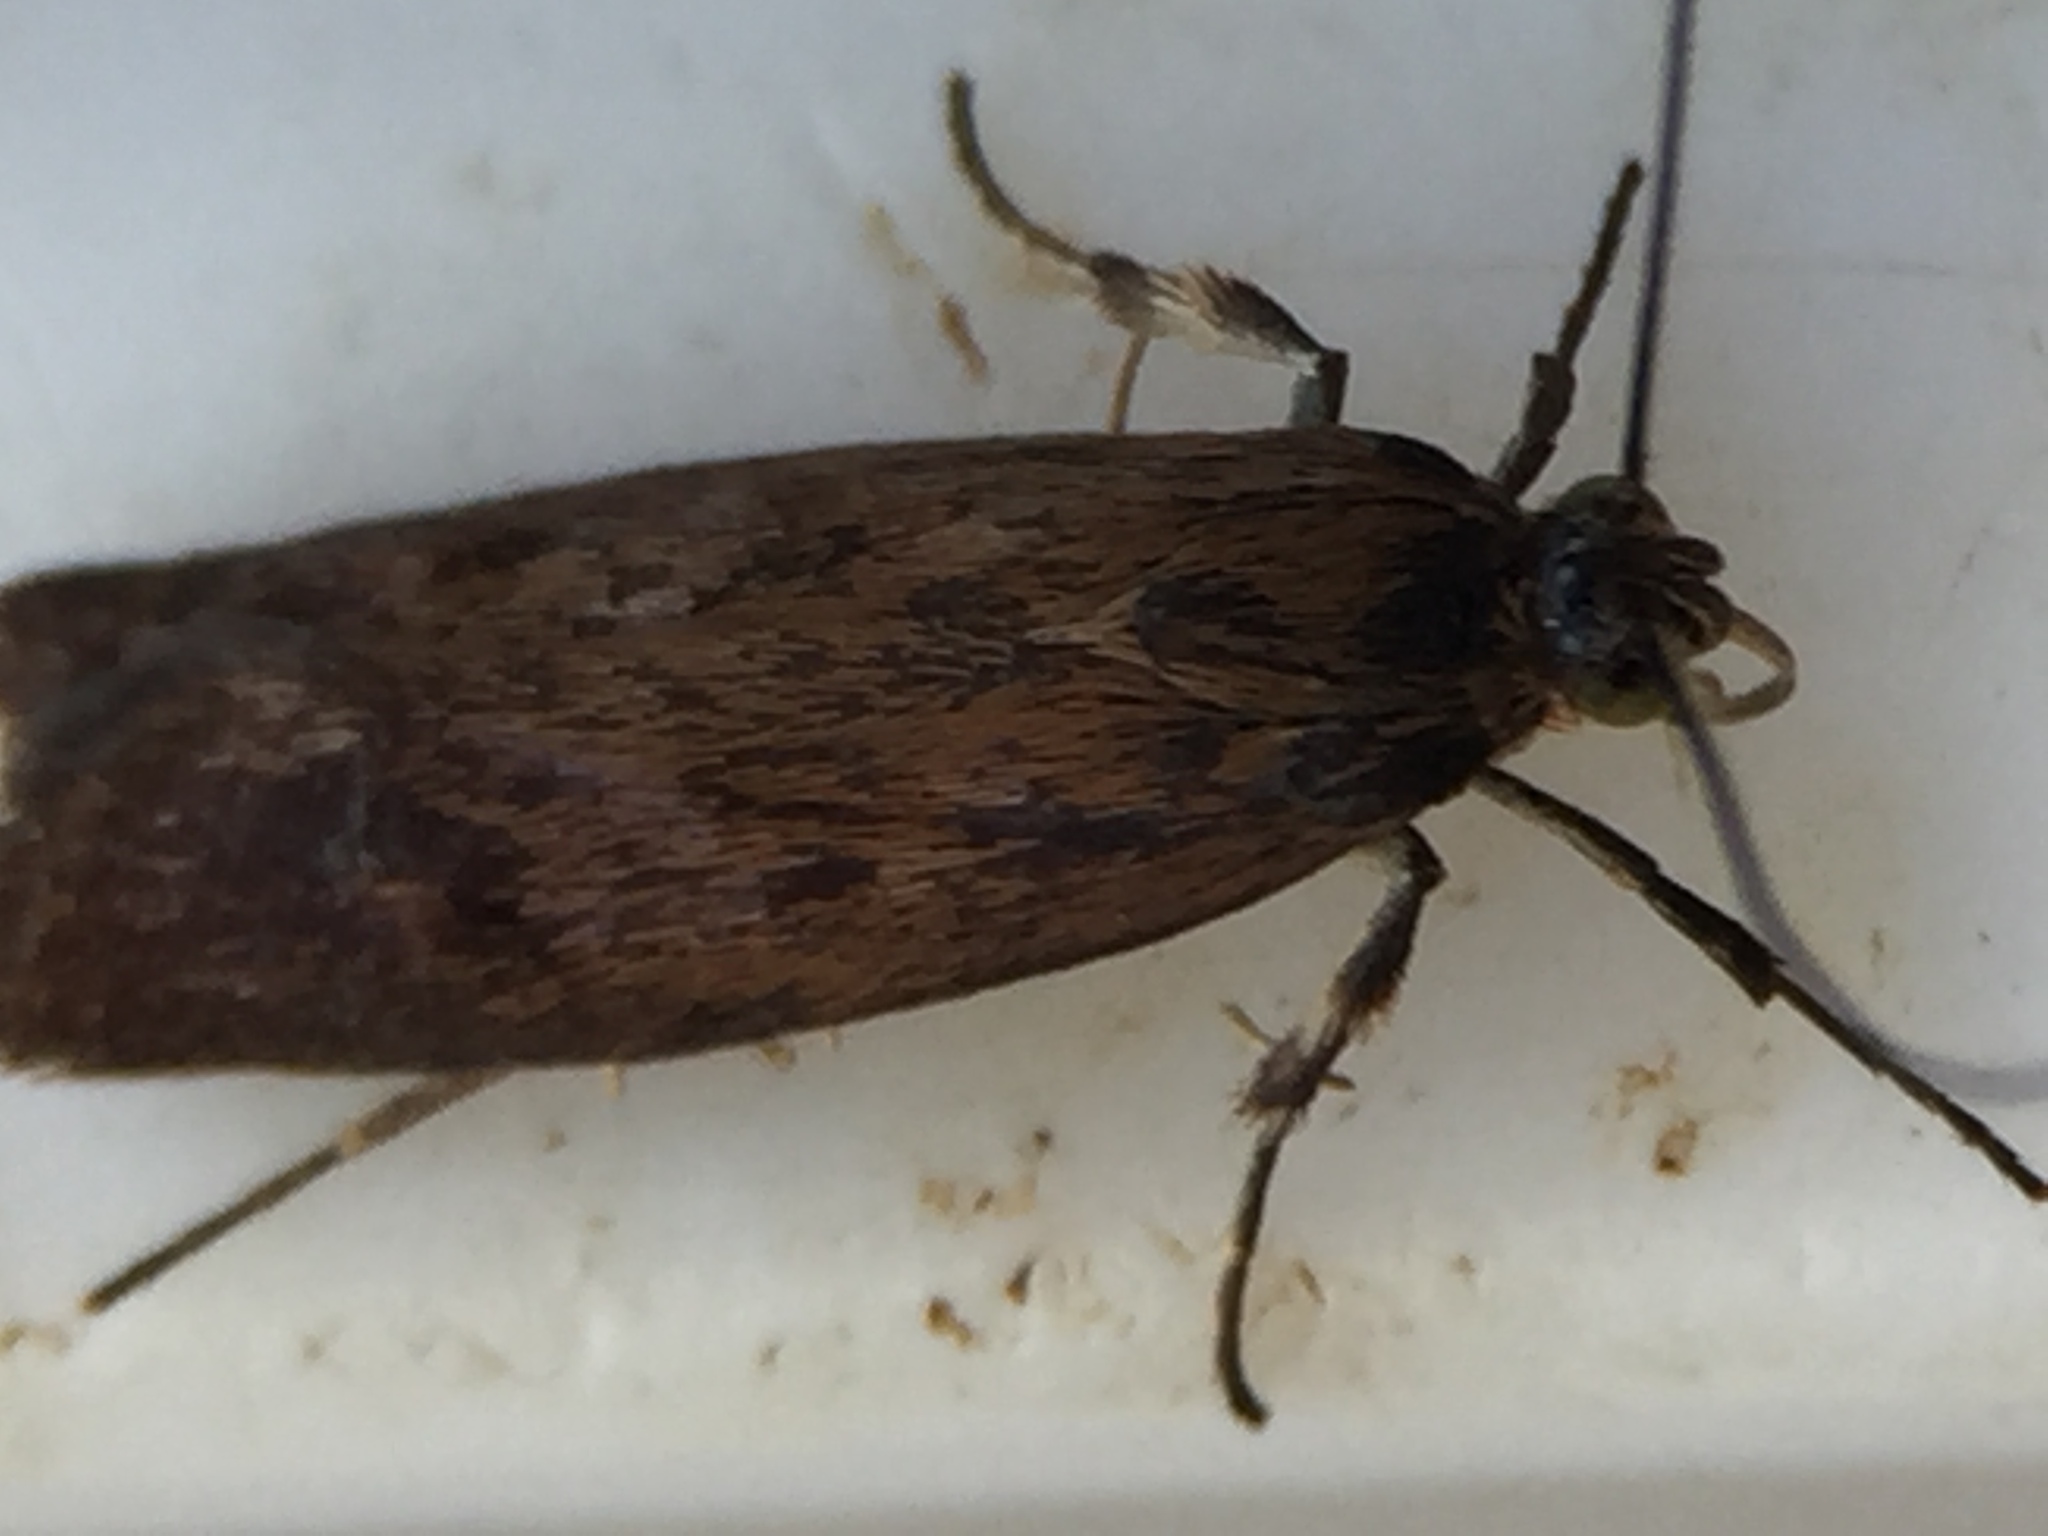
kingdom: Animalia
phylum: Arthropoda
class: Insecta
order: Lepidoptera
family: Oecophoridae
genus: Hierodoris
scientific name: Hierodoris atychioides
